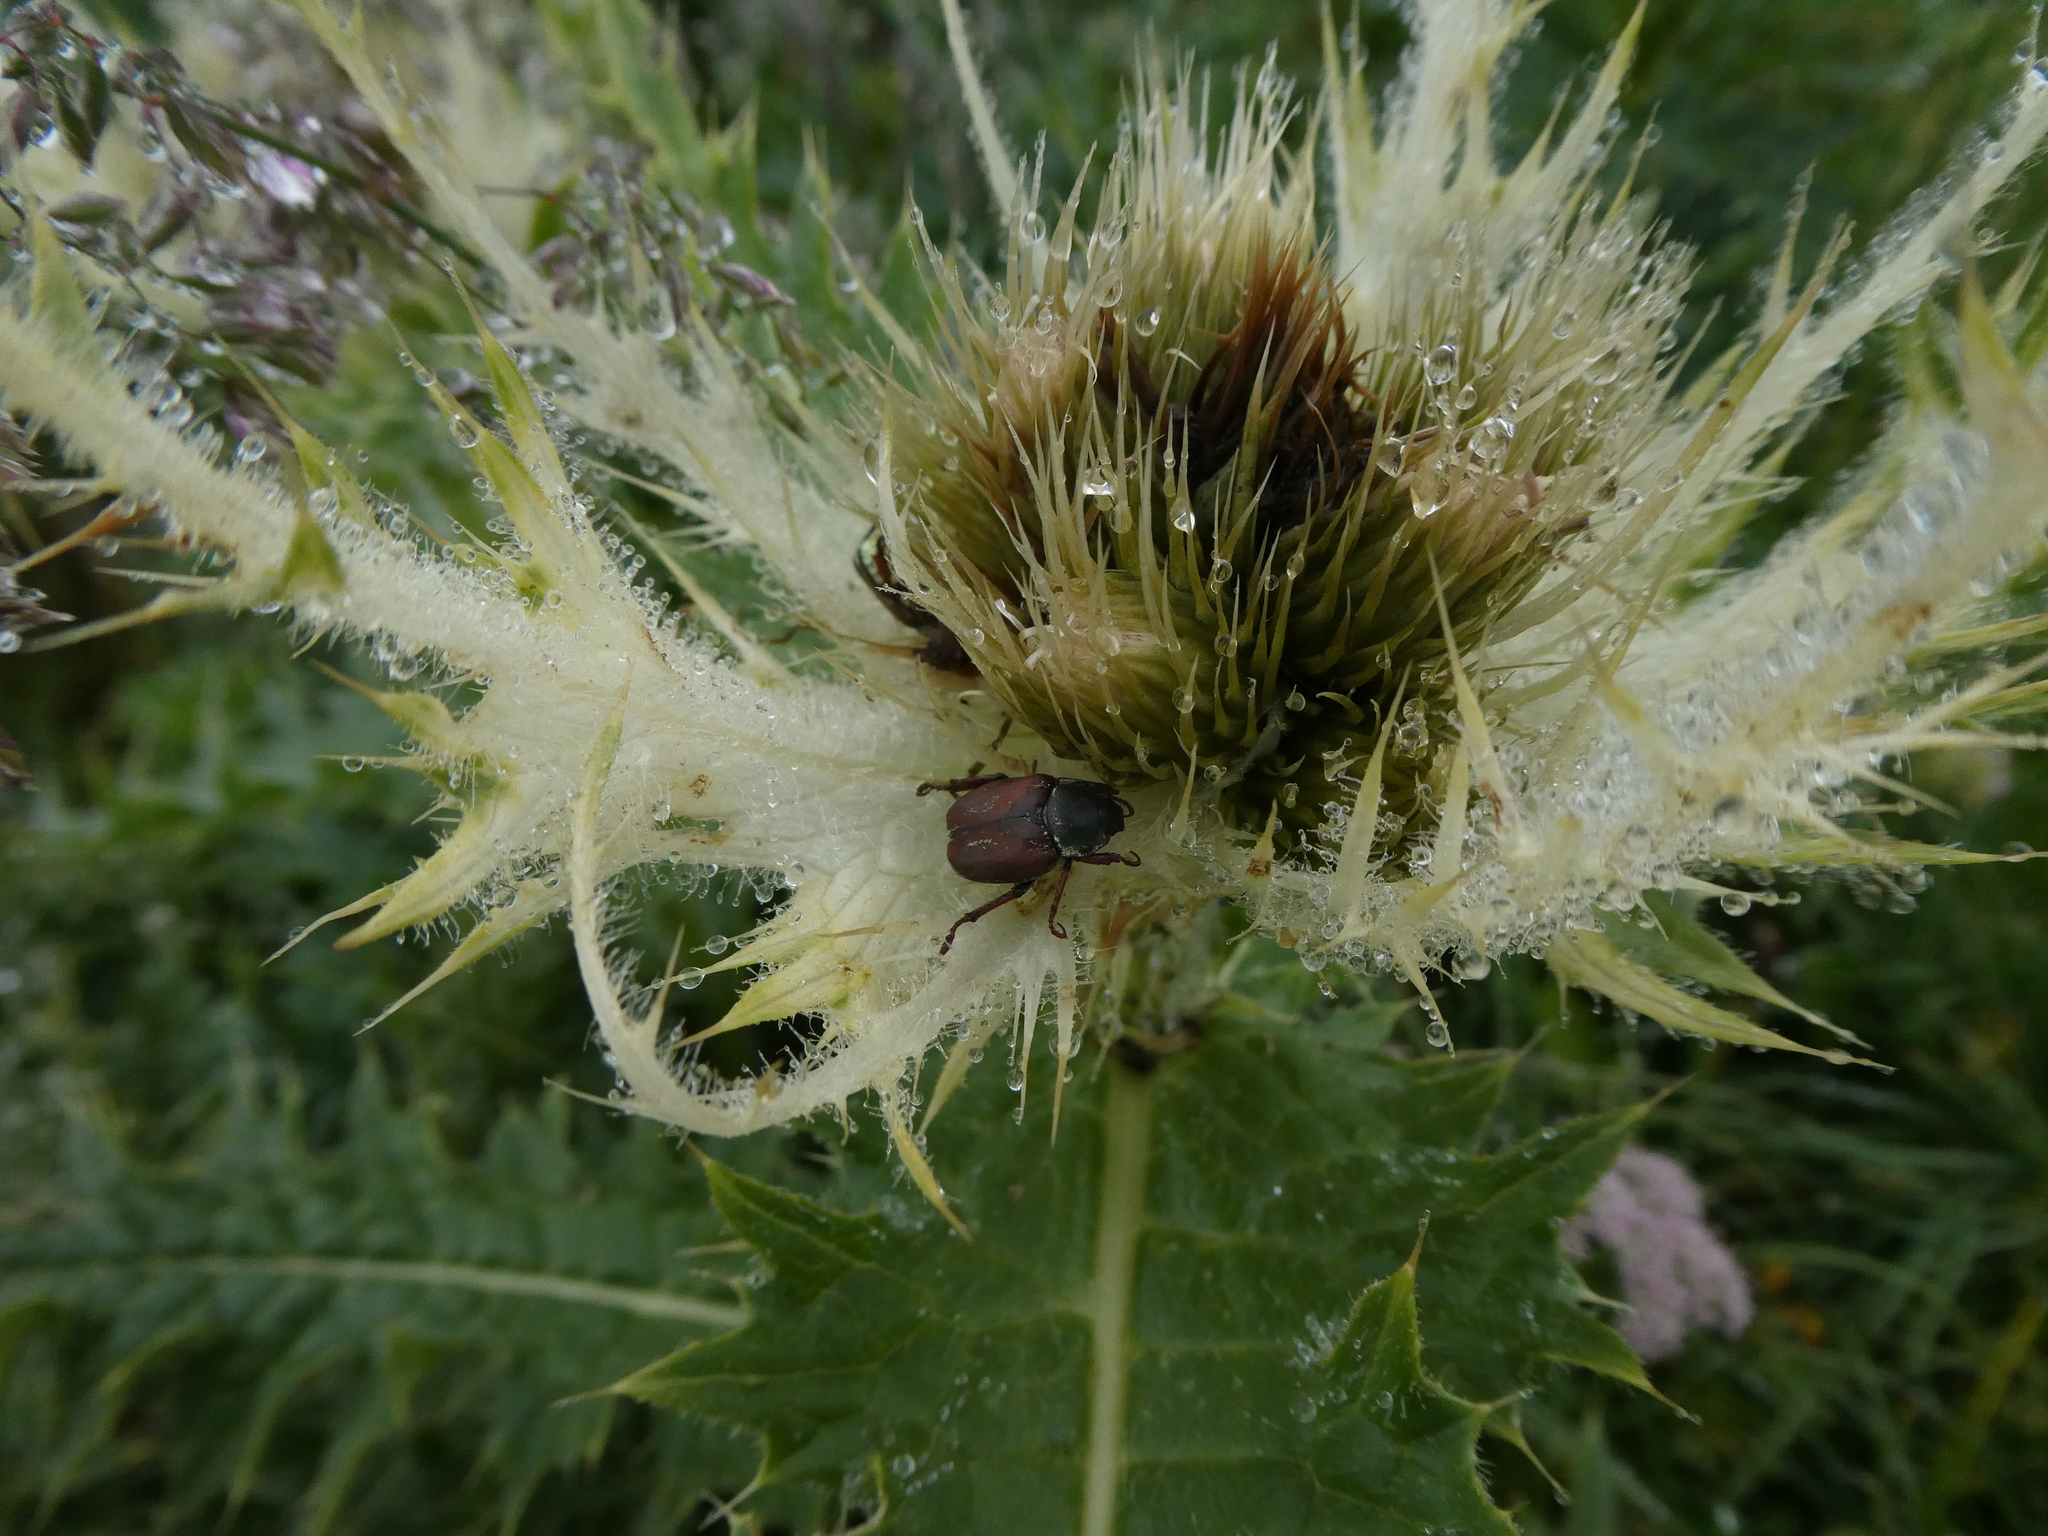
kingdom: Plantae
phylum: Tracheophyta
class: Magnoliopsida
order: Asterales
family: Asteraceae
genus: Cirsium
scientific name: Cirsium spinosissimum
